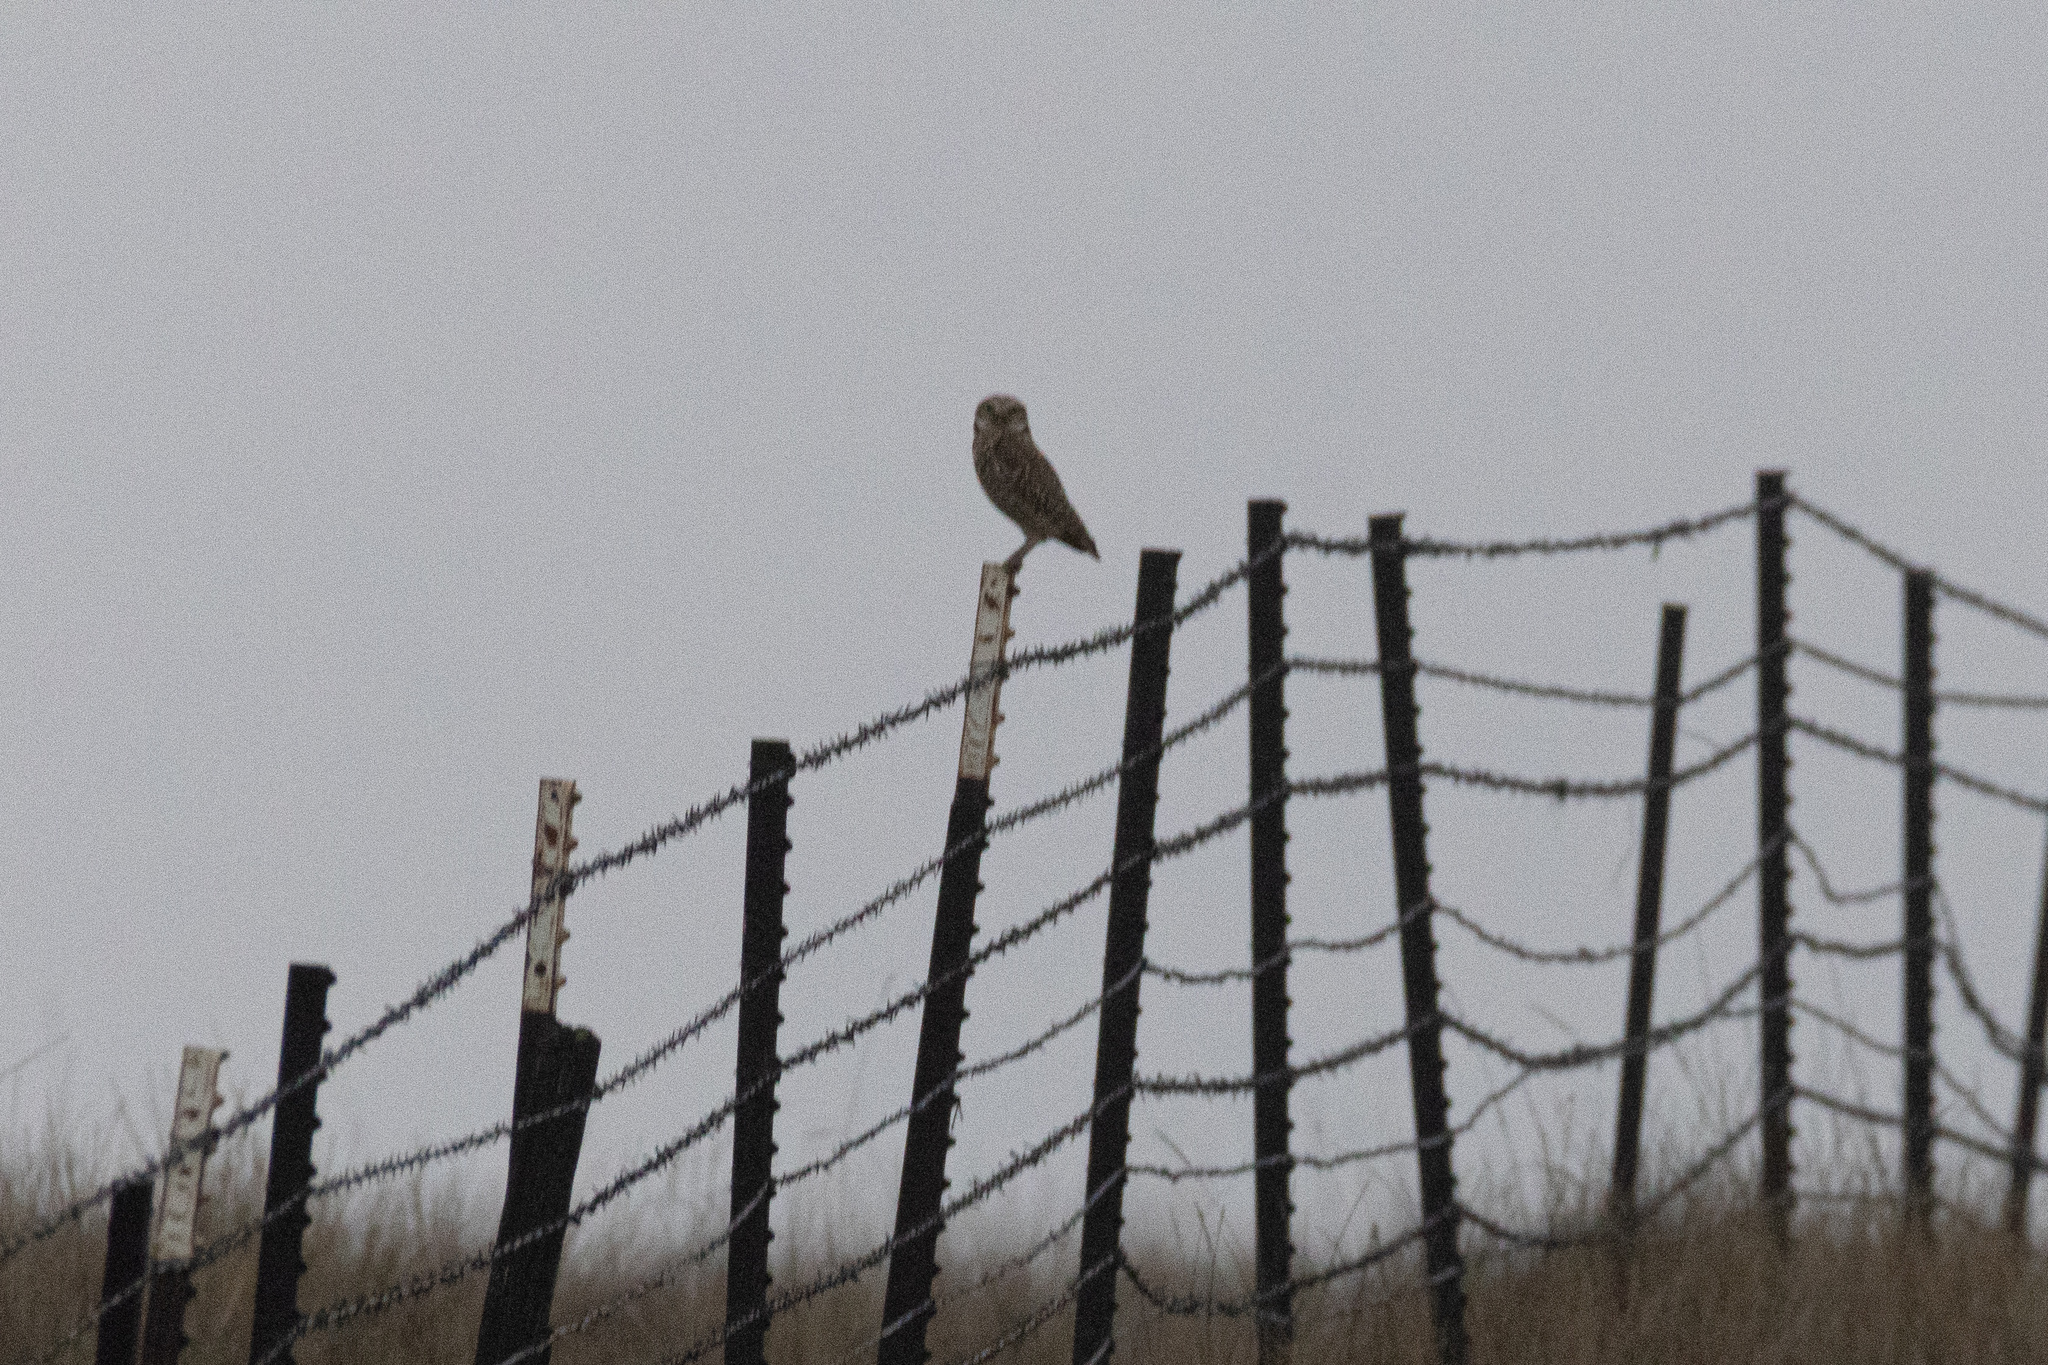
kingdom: Animalia
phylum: Chordata
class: Aves
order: Strigiformes
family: Strigidae
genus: Athene
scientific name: Athene cunicularia
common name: Burrowing owl
